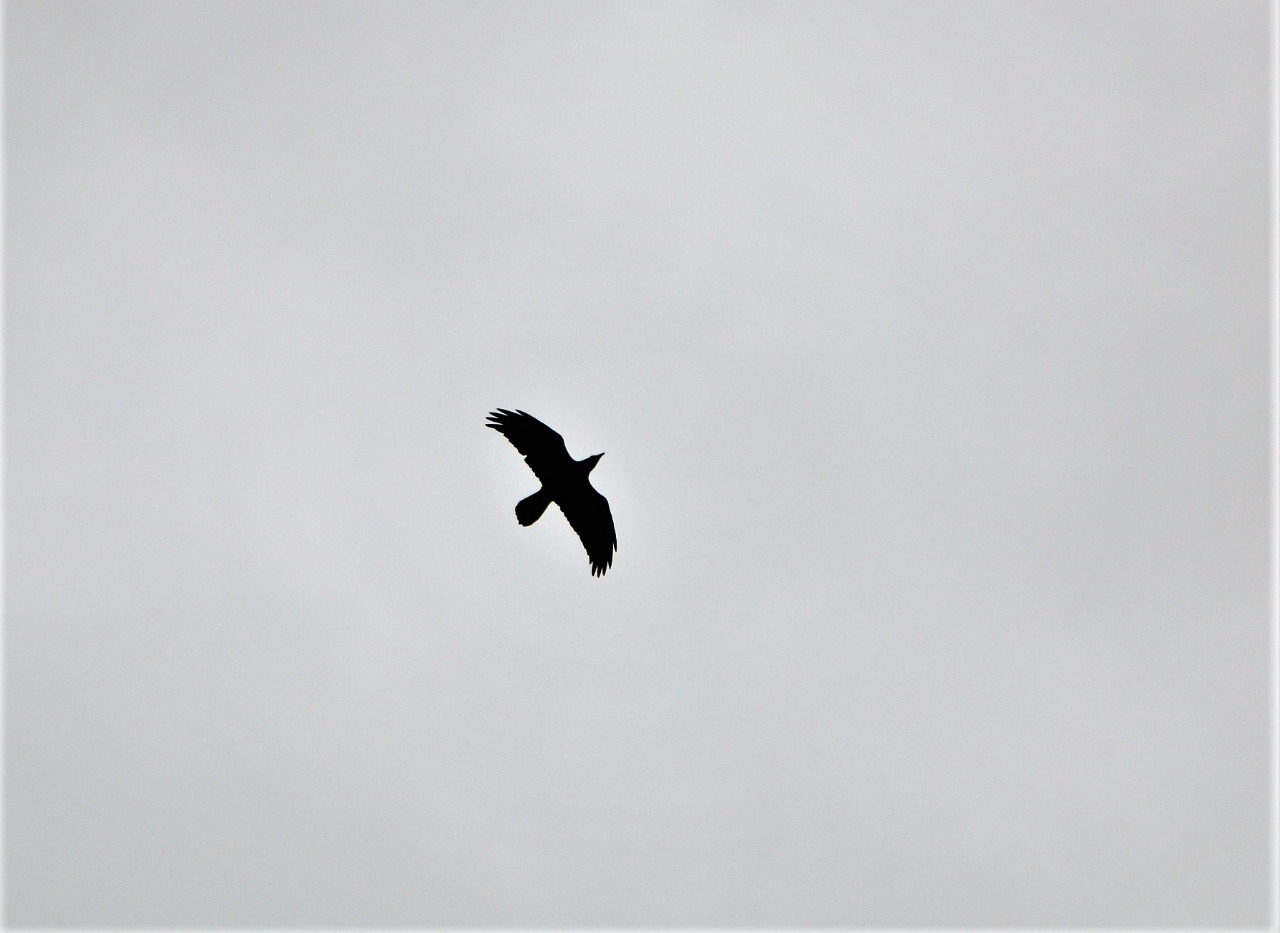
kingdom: Animalia
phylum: Chordata
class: Aves
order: Passeriformes
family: Corvidae
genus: Corvus
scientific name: Corvus corax
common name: Common raven
